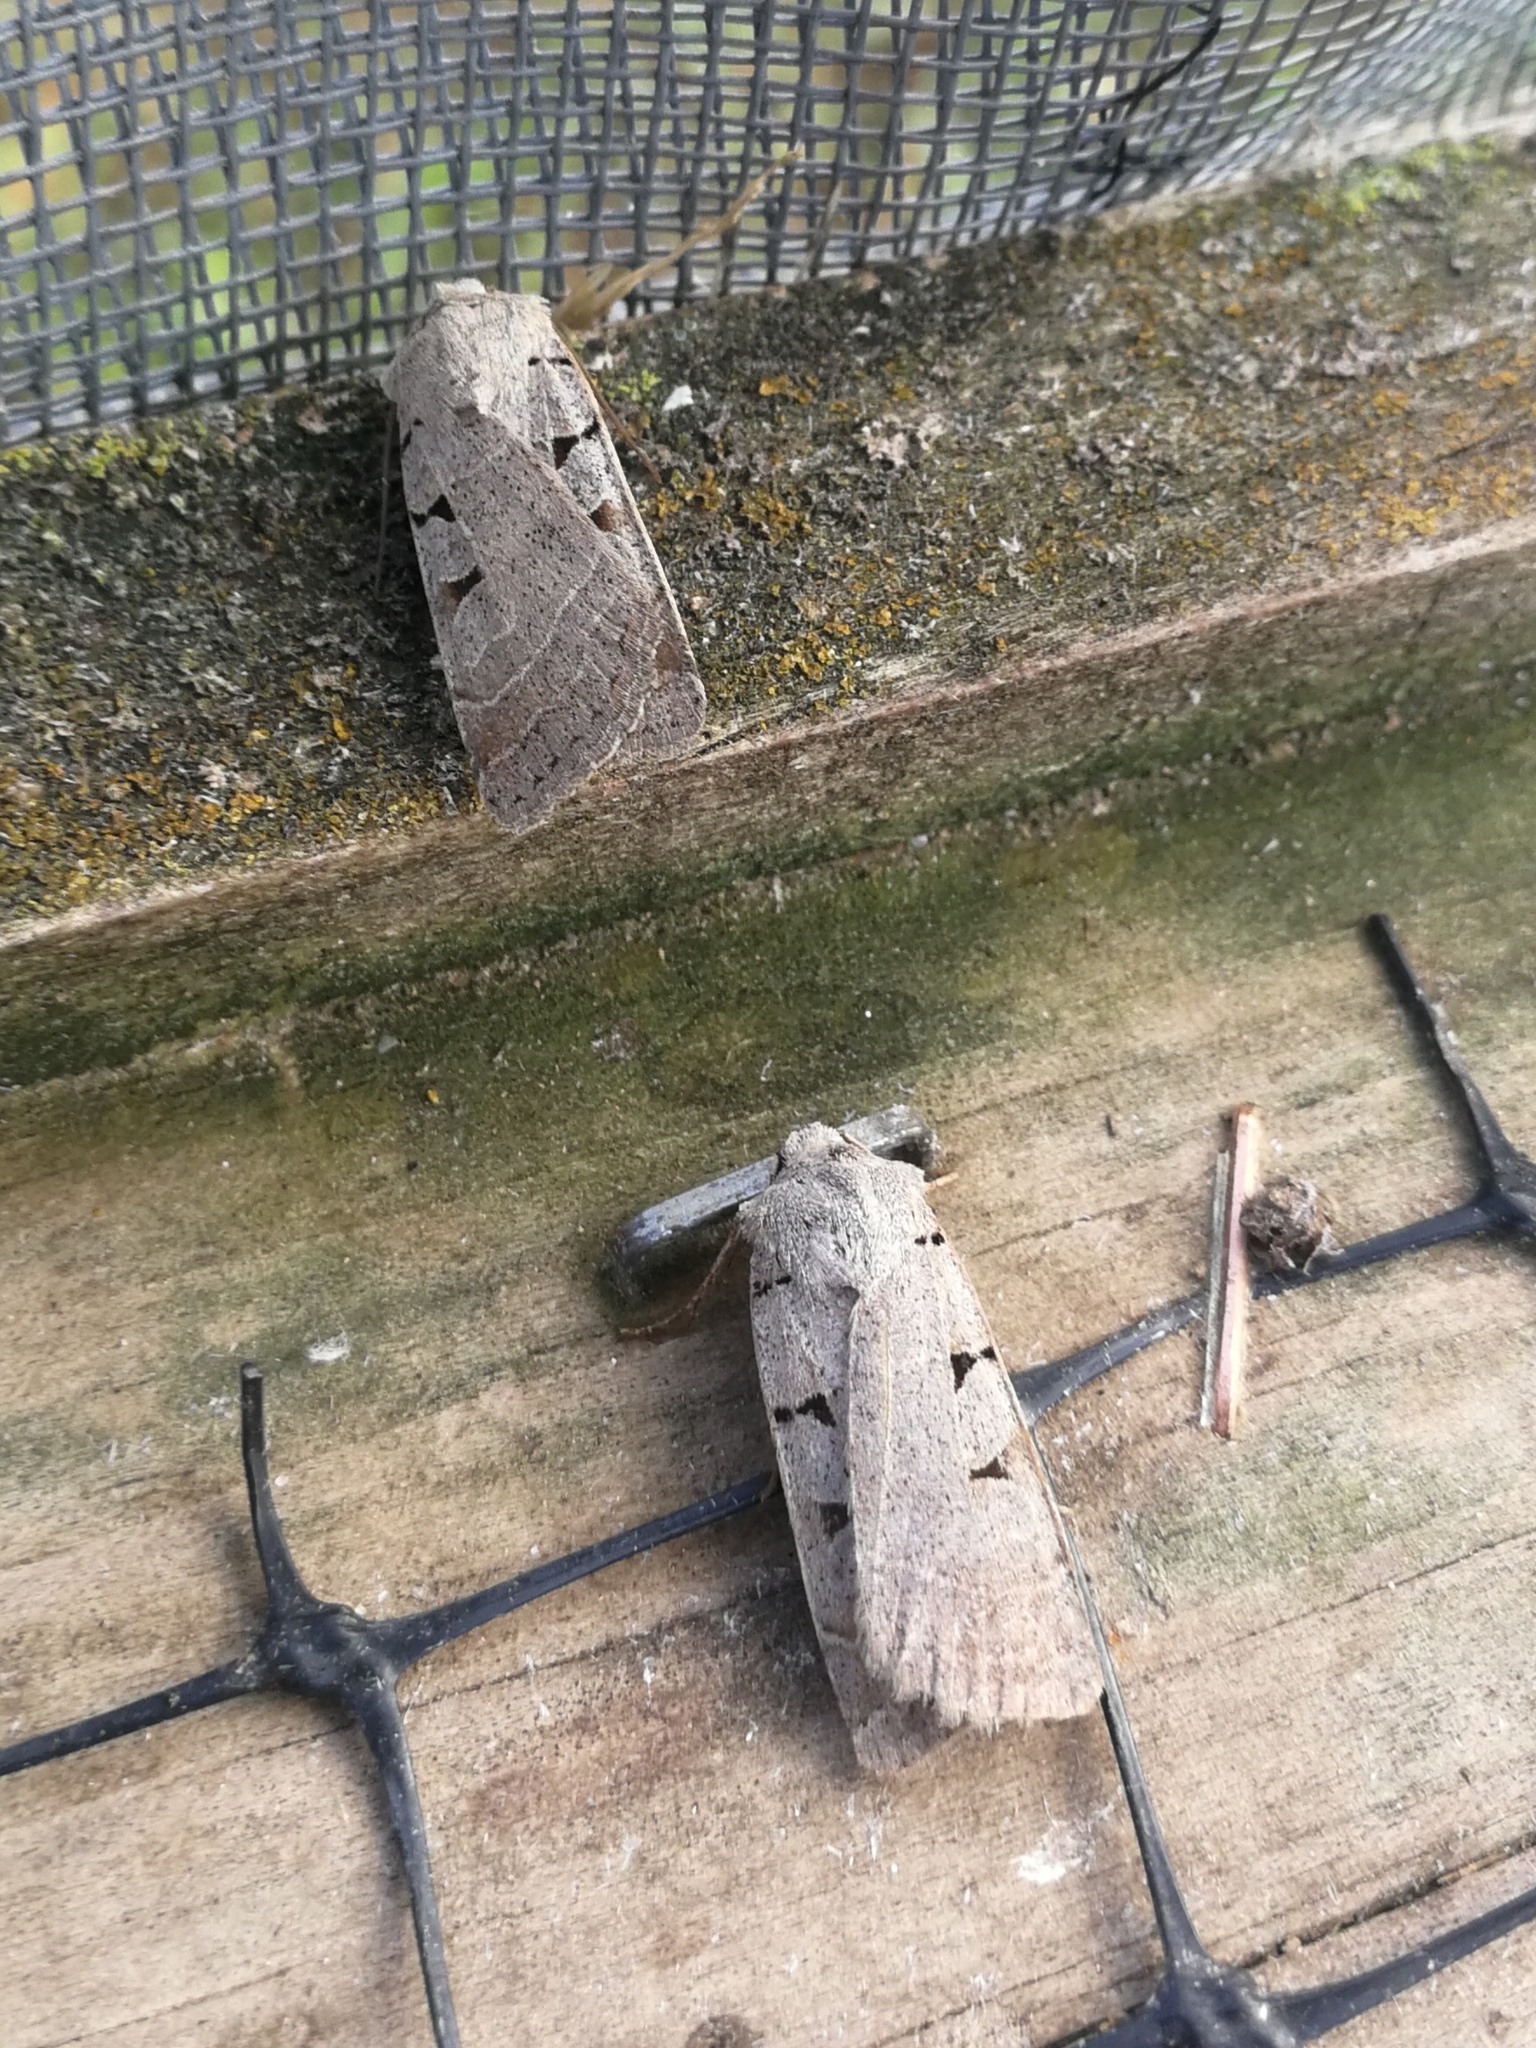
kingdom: Animalia
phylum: Arthropoda
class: Insecta
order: Lepidoptera
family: Noctuidae
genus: Eugnorisma
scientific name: Eugnorisma glareosa
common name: Autumnal rustic
